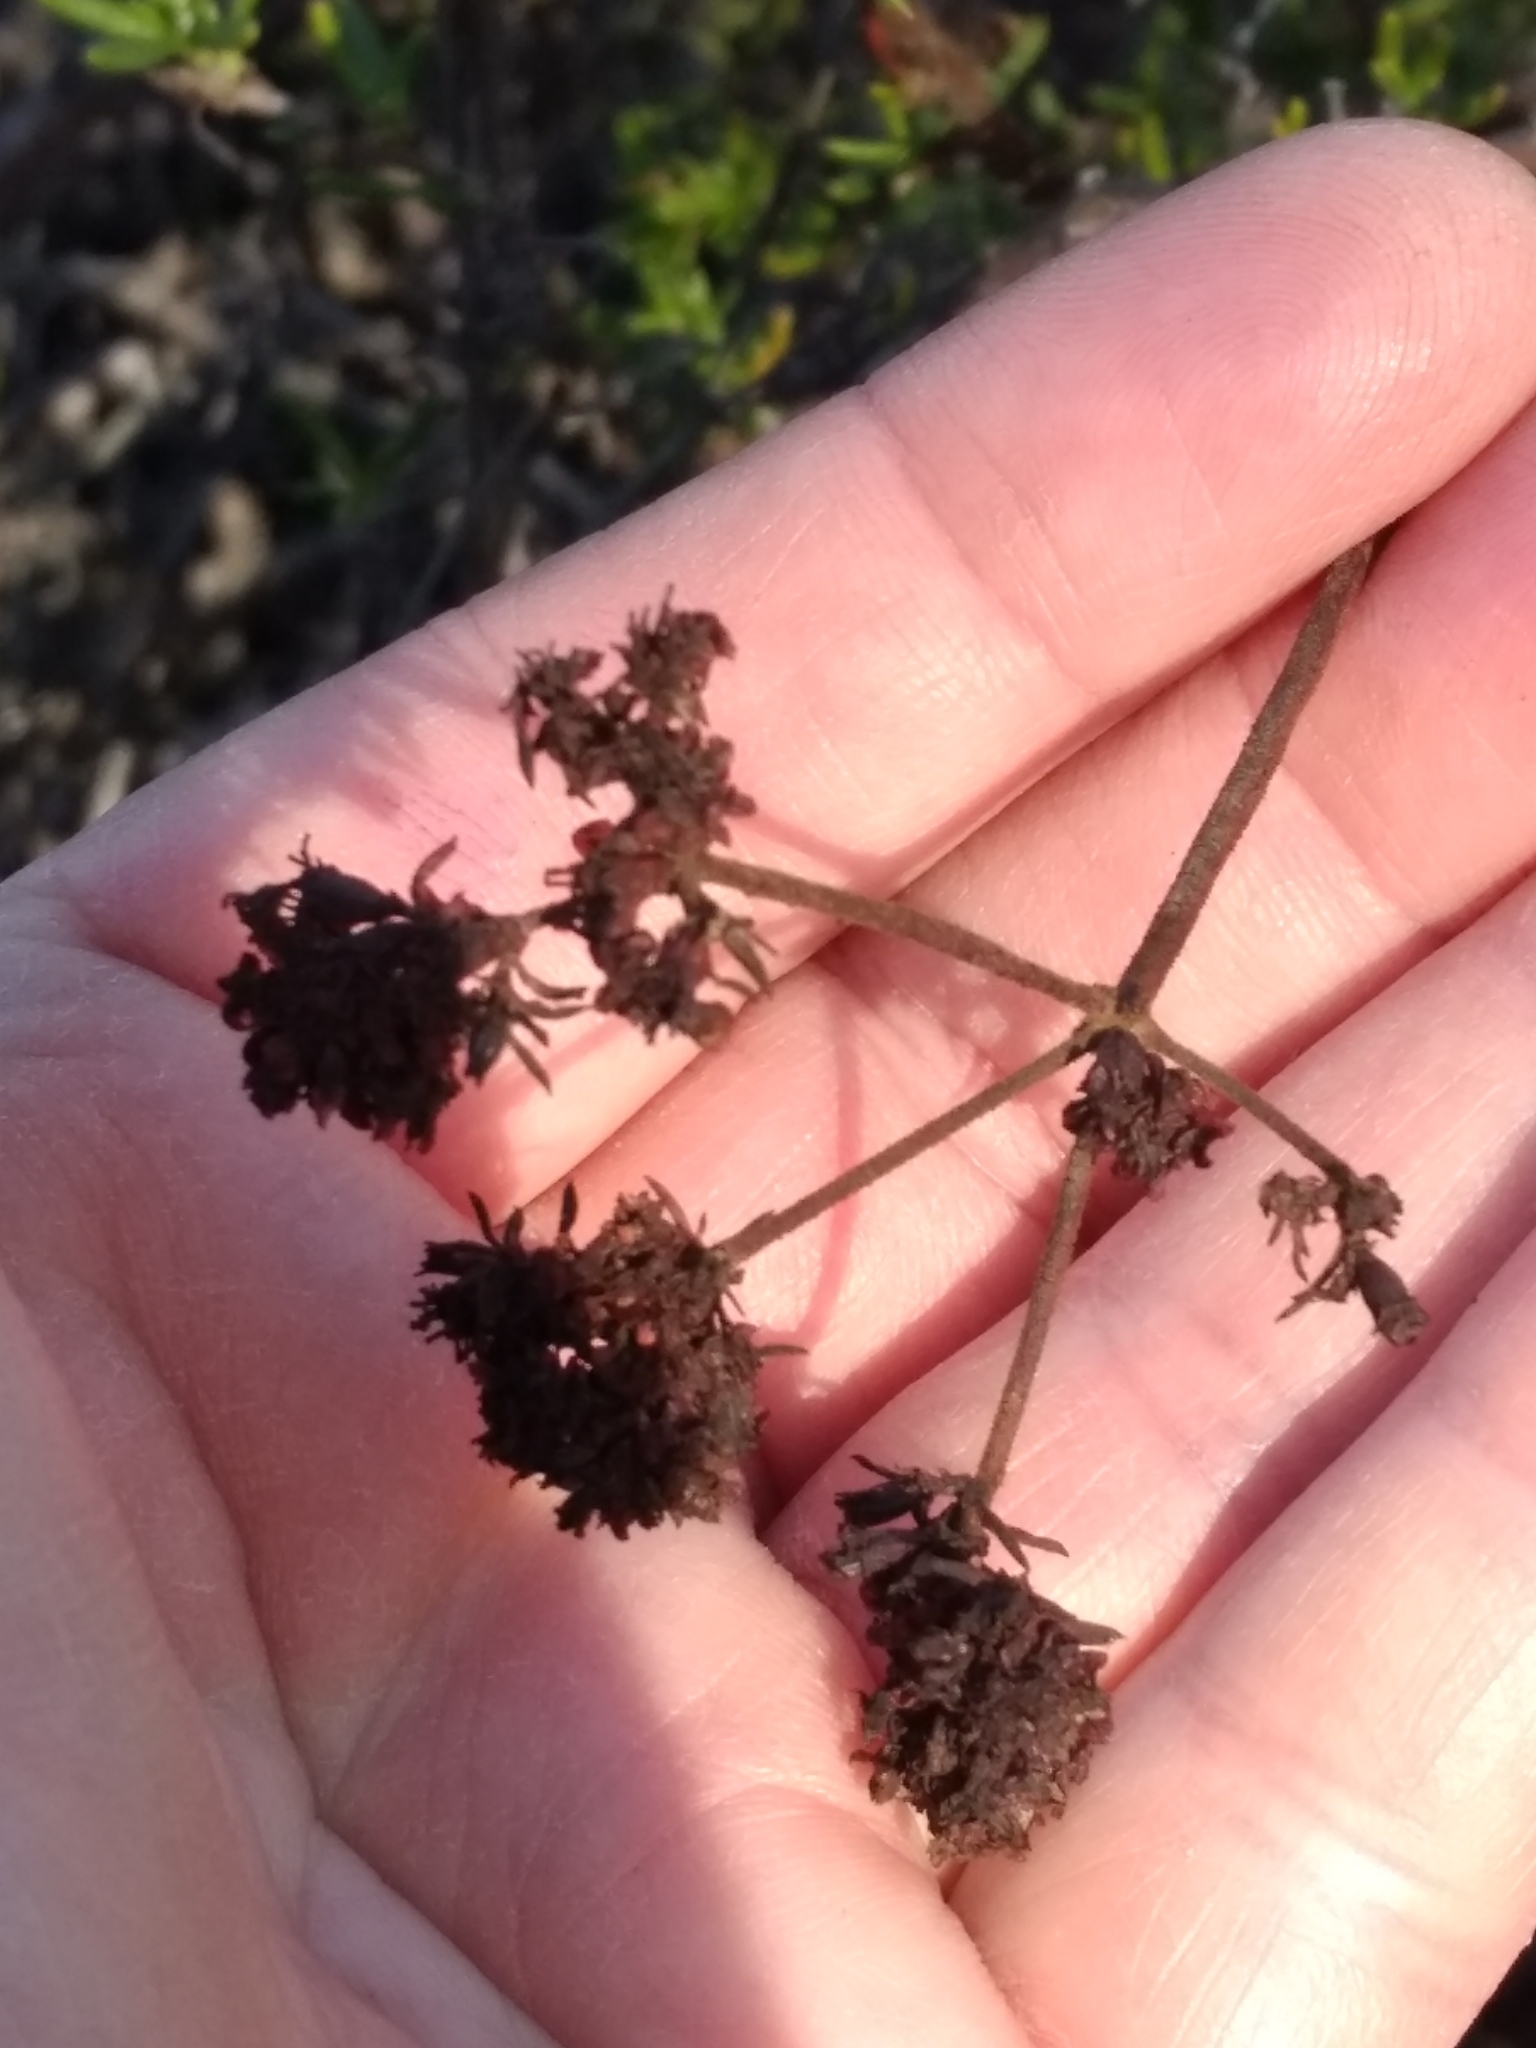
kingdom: Plantae
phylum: Tracheophyta
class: Magnoliopsida
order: Caryophyllales
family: Polygonaceae
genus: Eriogonum
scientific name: Eriogonum fasciculatum
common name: California wild buckwheat
